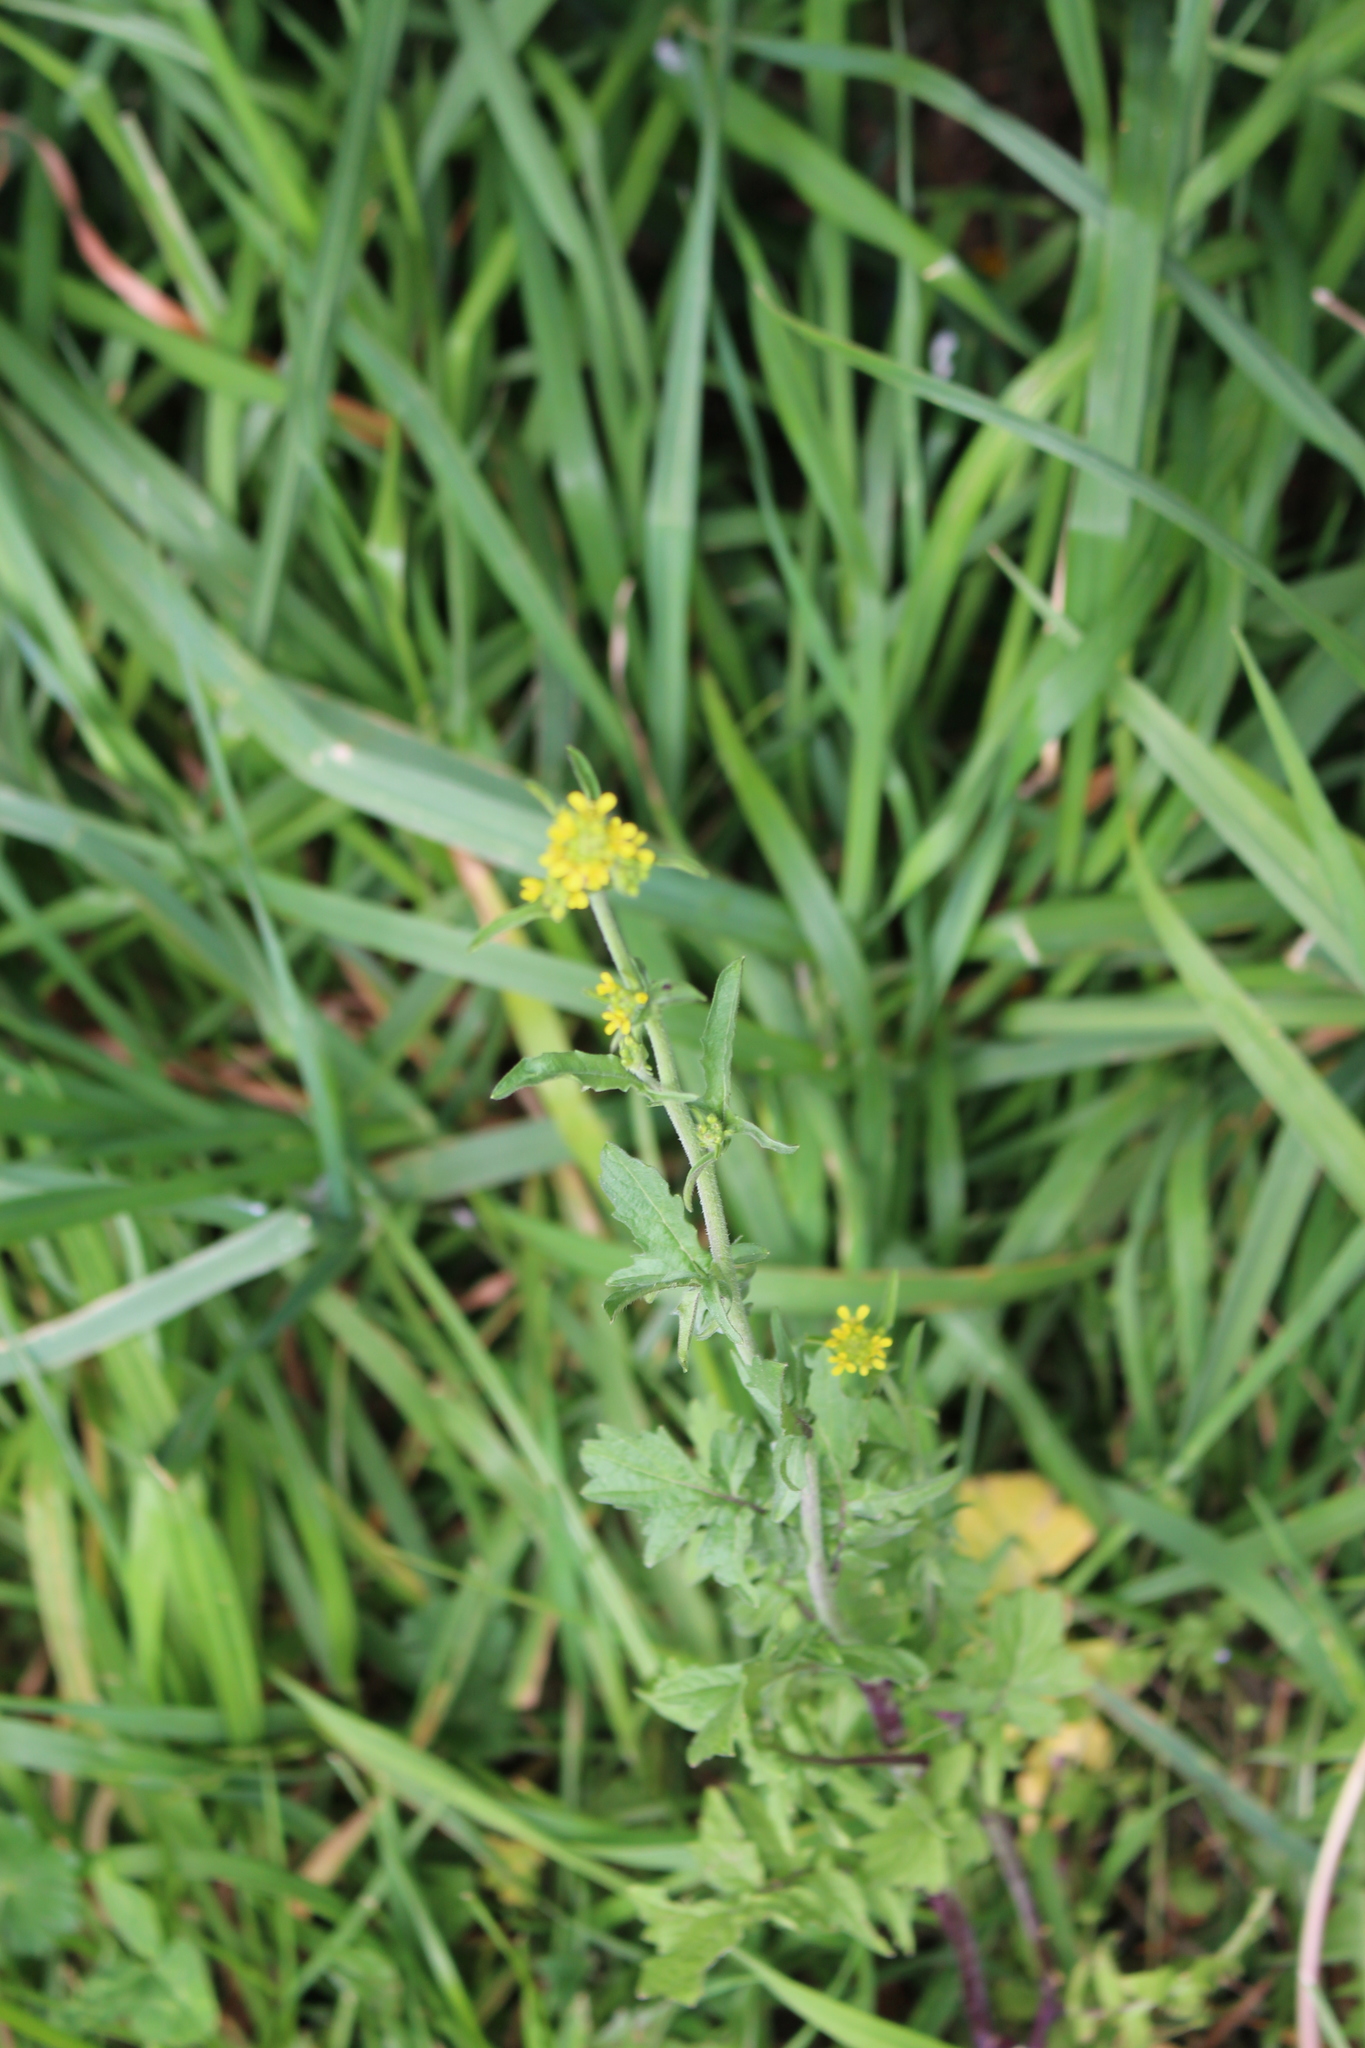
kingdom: Plantae
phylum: Tracheophyta
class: Magnoliopsida
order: Brassicales
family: Brassicaceae
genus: Sisymbrium
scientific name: Sisymbrium officinale
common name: Hedge mustard
